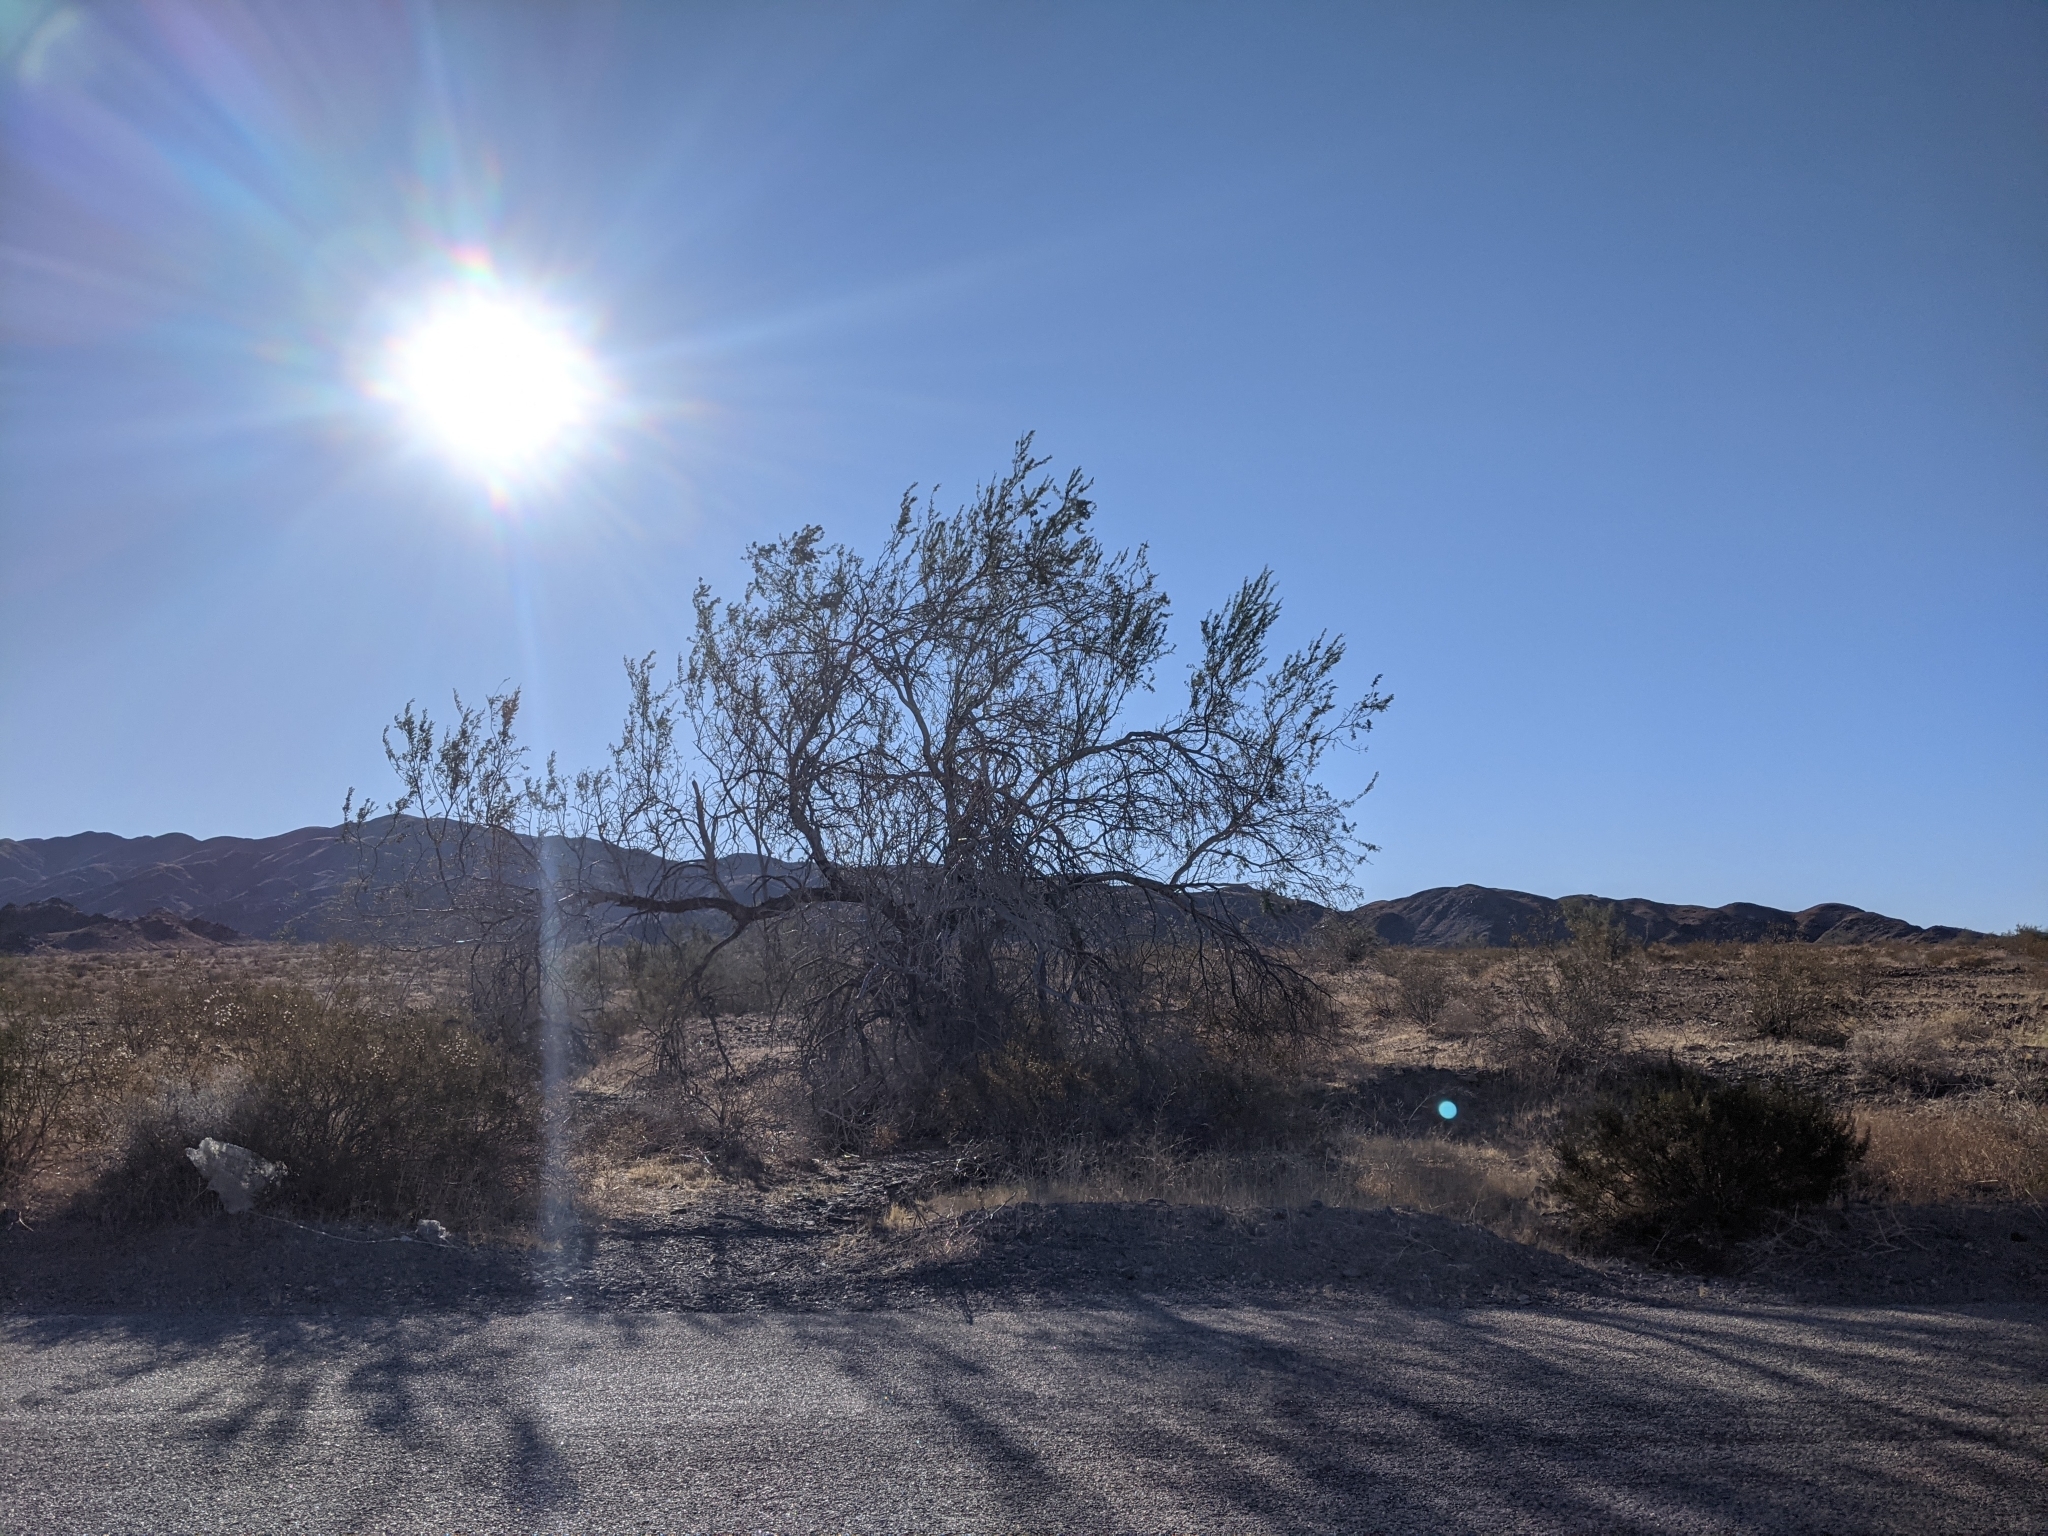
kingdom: Plantae
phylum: Tracheophyta
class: Magnoliopsida
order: Fabales
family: Fabaceae
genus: Olneya
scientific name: Olneya tesota
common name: Desert ironwood
